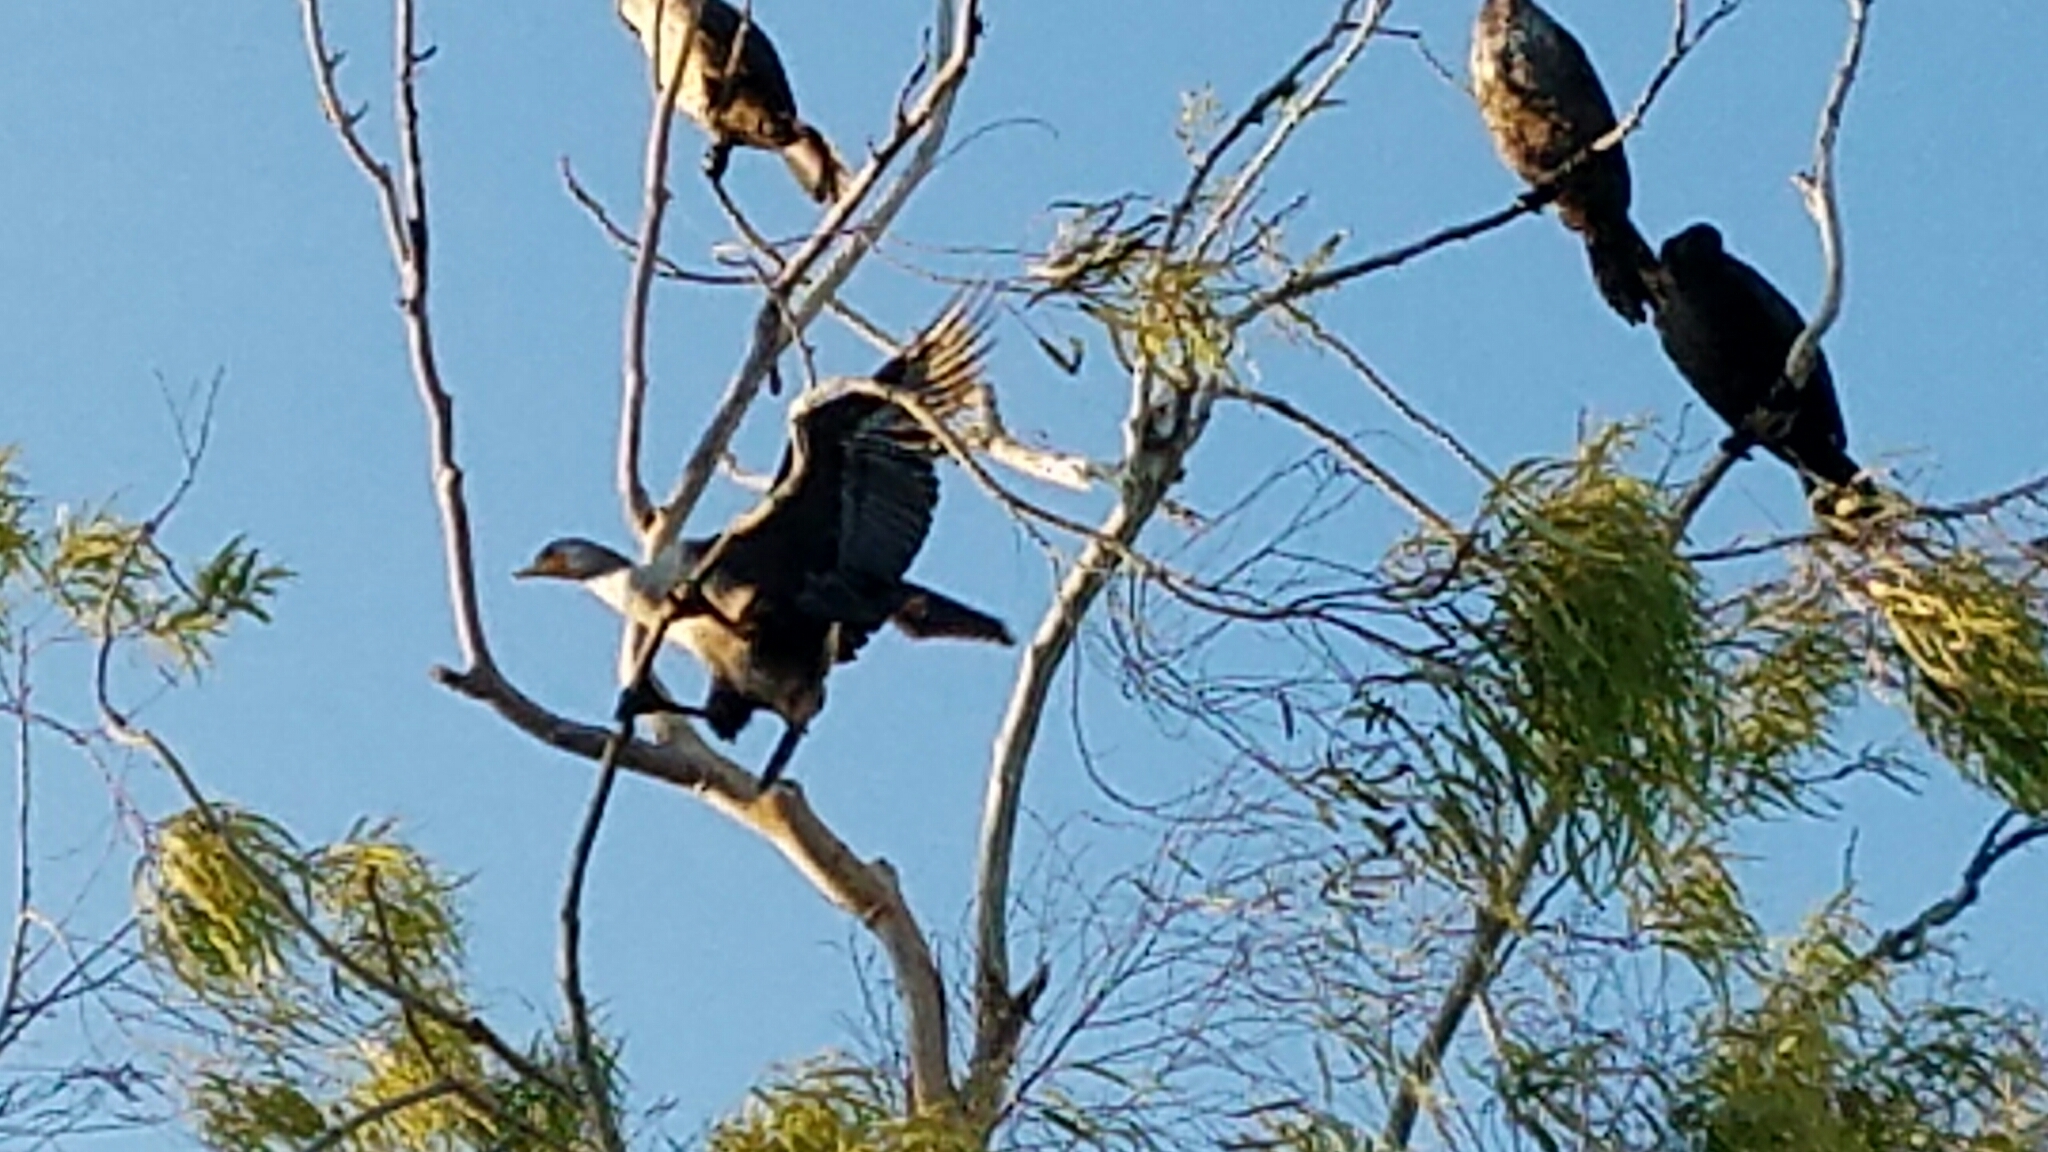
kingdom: Animalia
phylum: Chordata
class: Aves
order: Suliformes
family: Phalacrocoracidae
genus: Phalacrocorax
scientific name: Phalacrocorax auritus
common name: Double-crested cormorant
